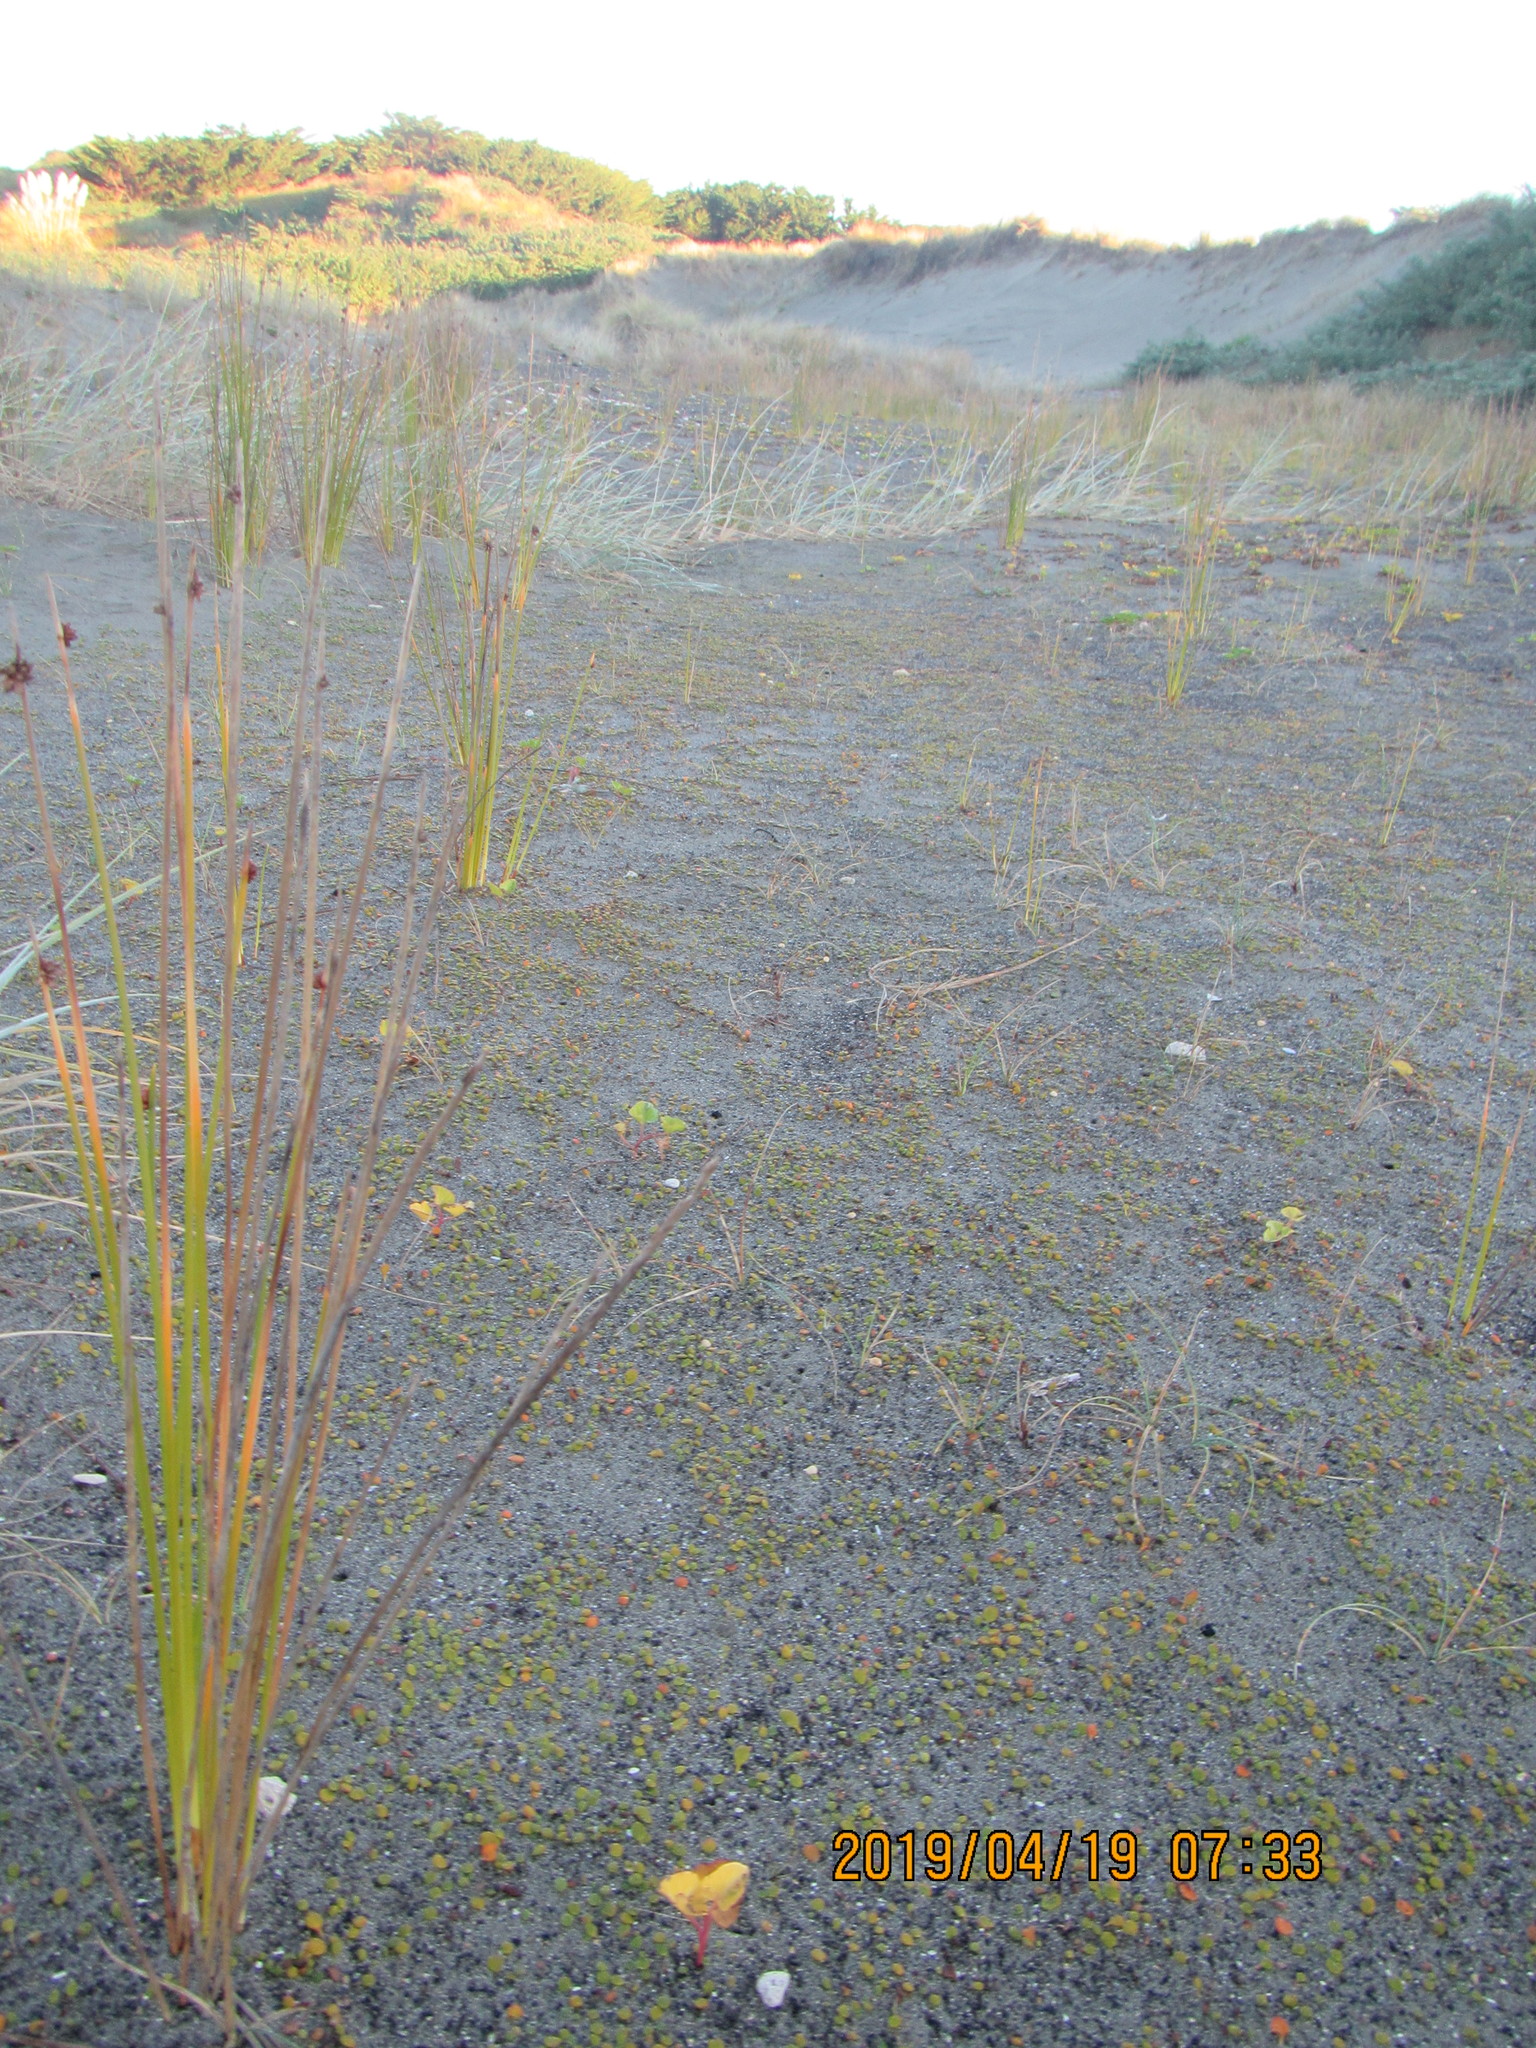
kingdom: Plantae
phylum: Tracheophyta
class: Magnoliopsida
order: Solanales
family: Convolvulaceae
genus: Calystegia
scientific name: Calystegia soldanella
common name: Sea bindweed
